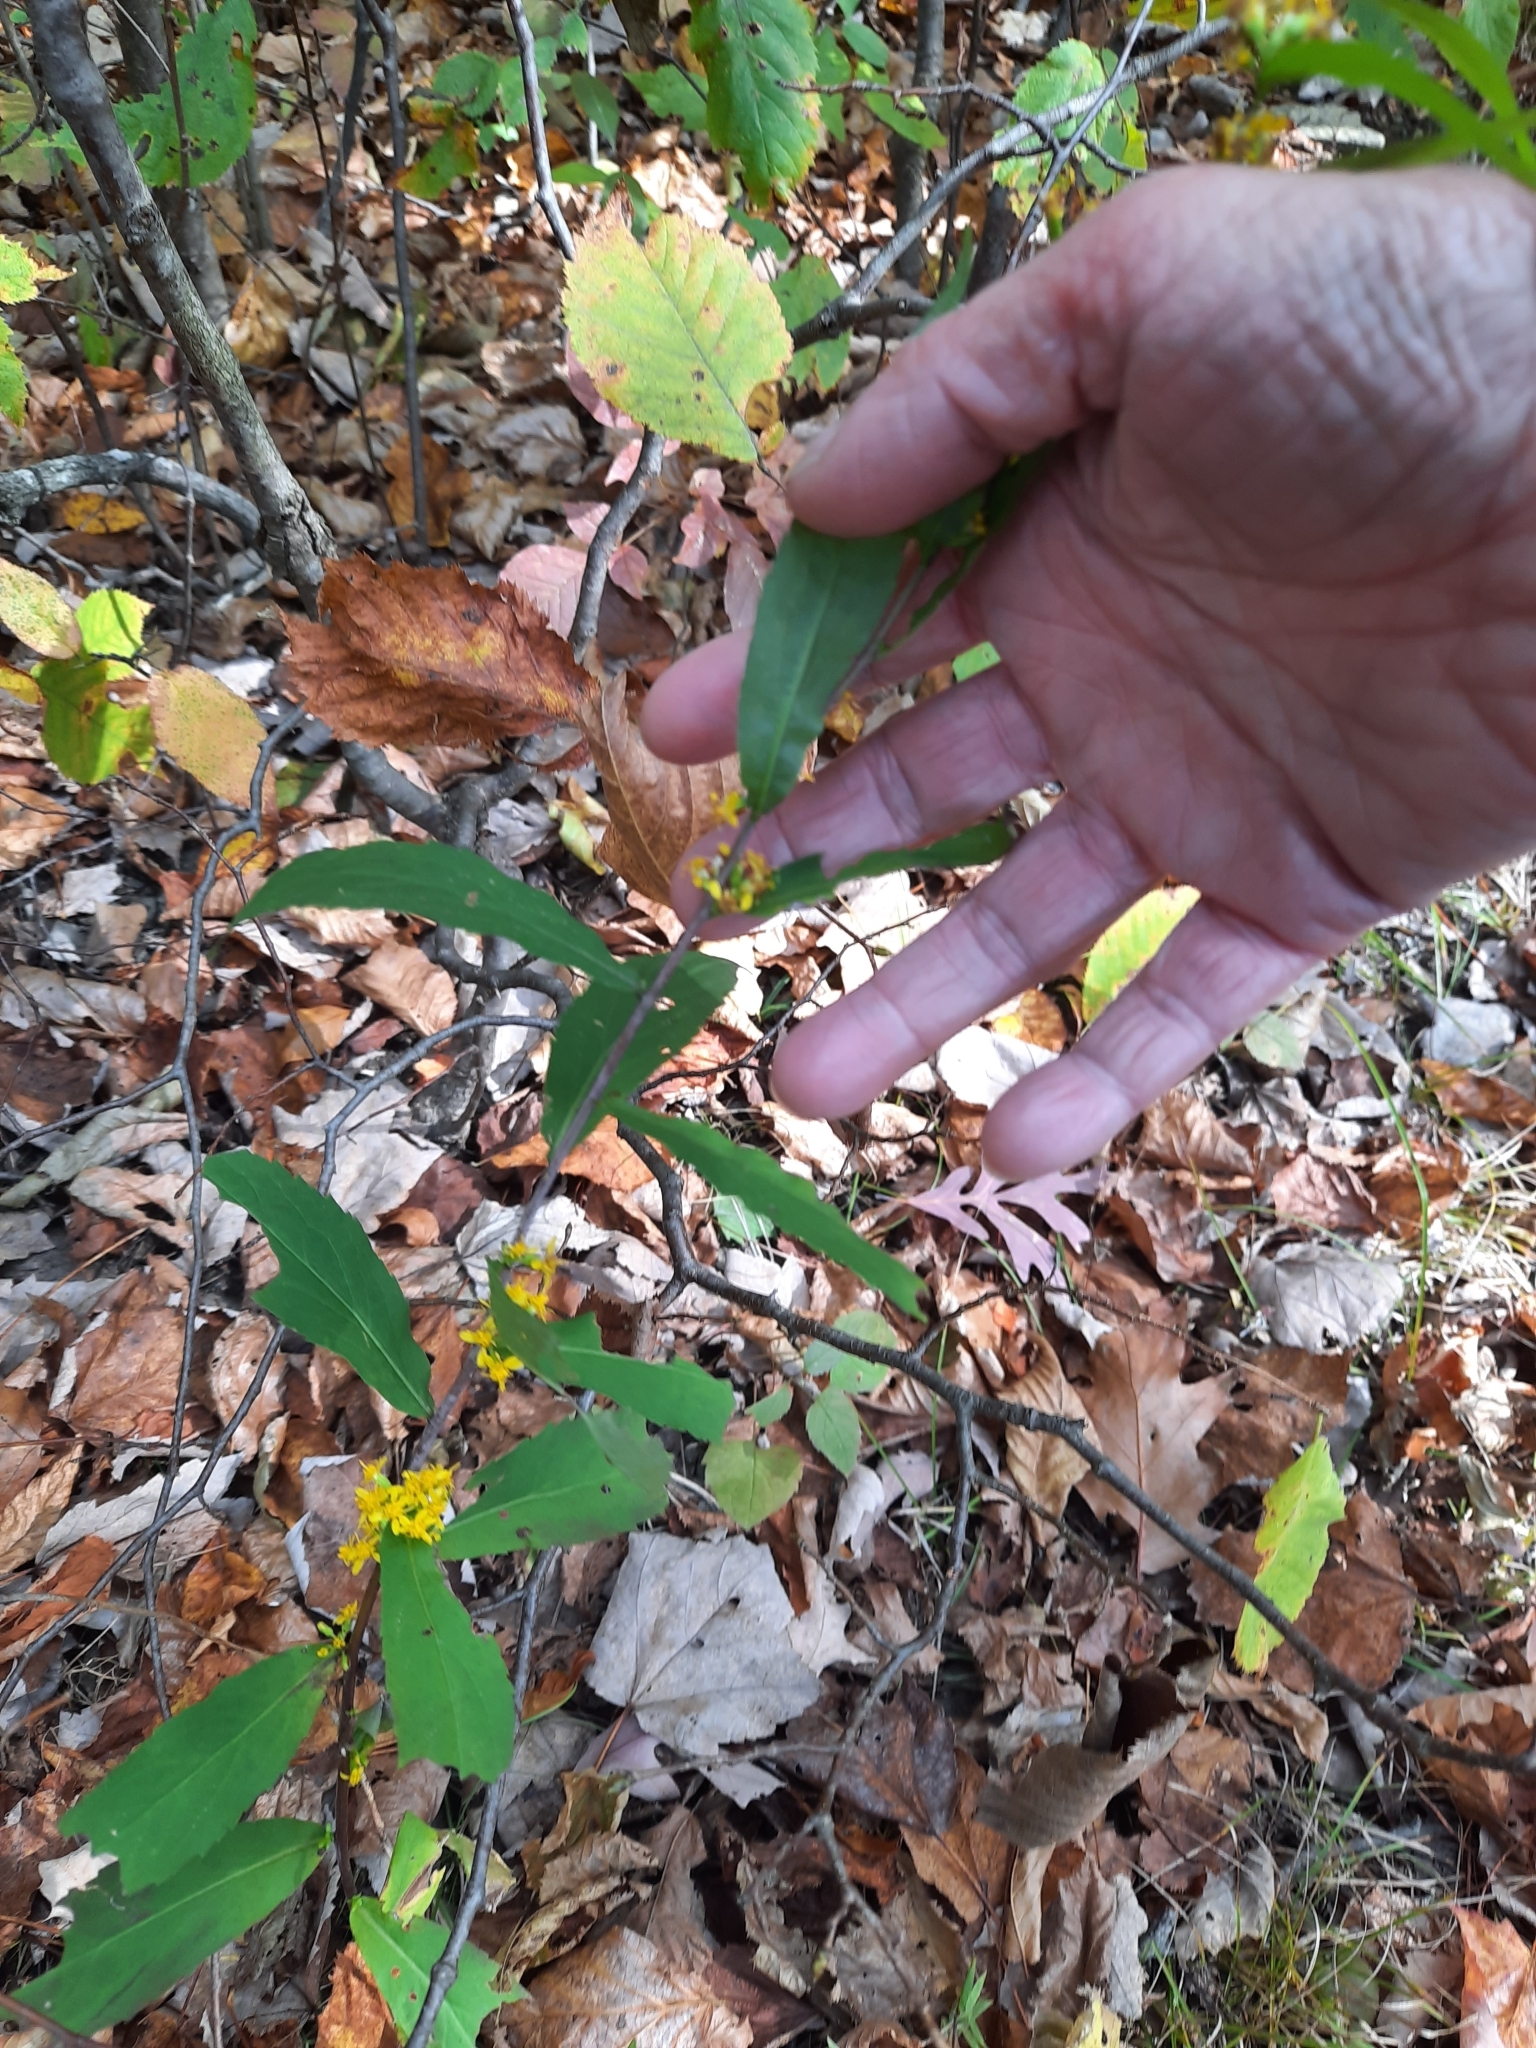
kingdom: Plantae
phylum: Tracheophyta
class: Magnoliopsida
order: Asterales
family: Asteraceae
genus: Solidago
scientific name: Solidago caesia
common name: Woodland goldenrod
